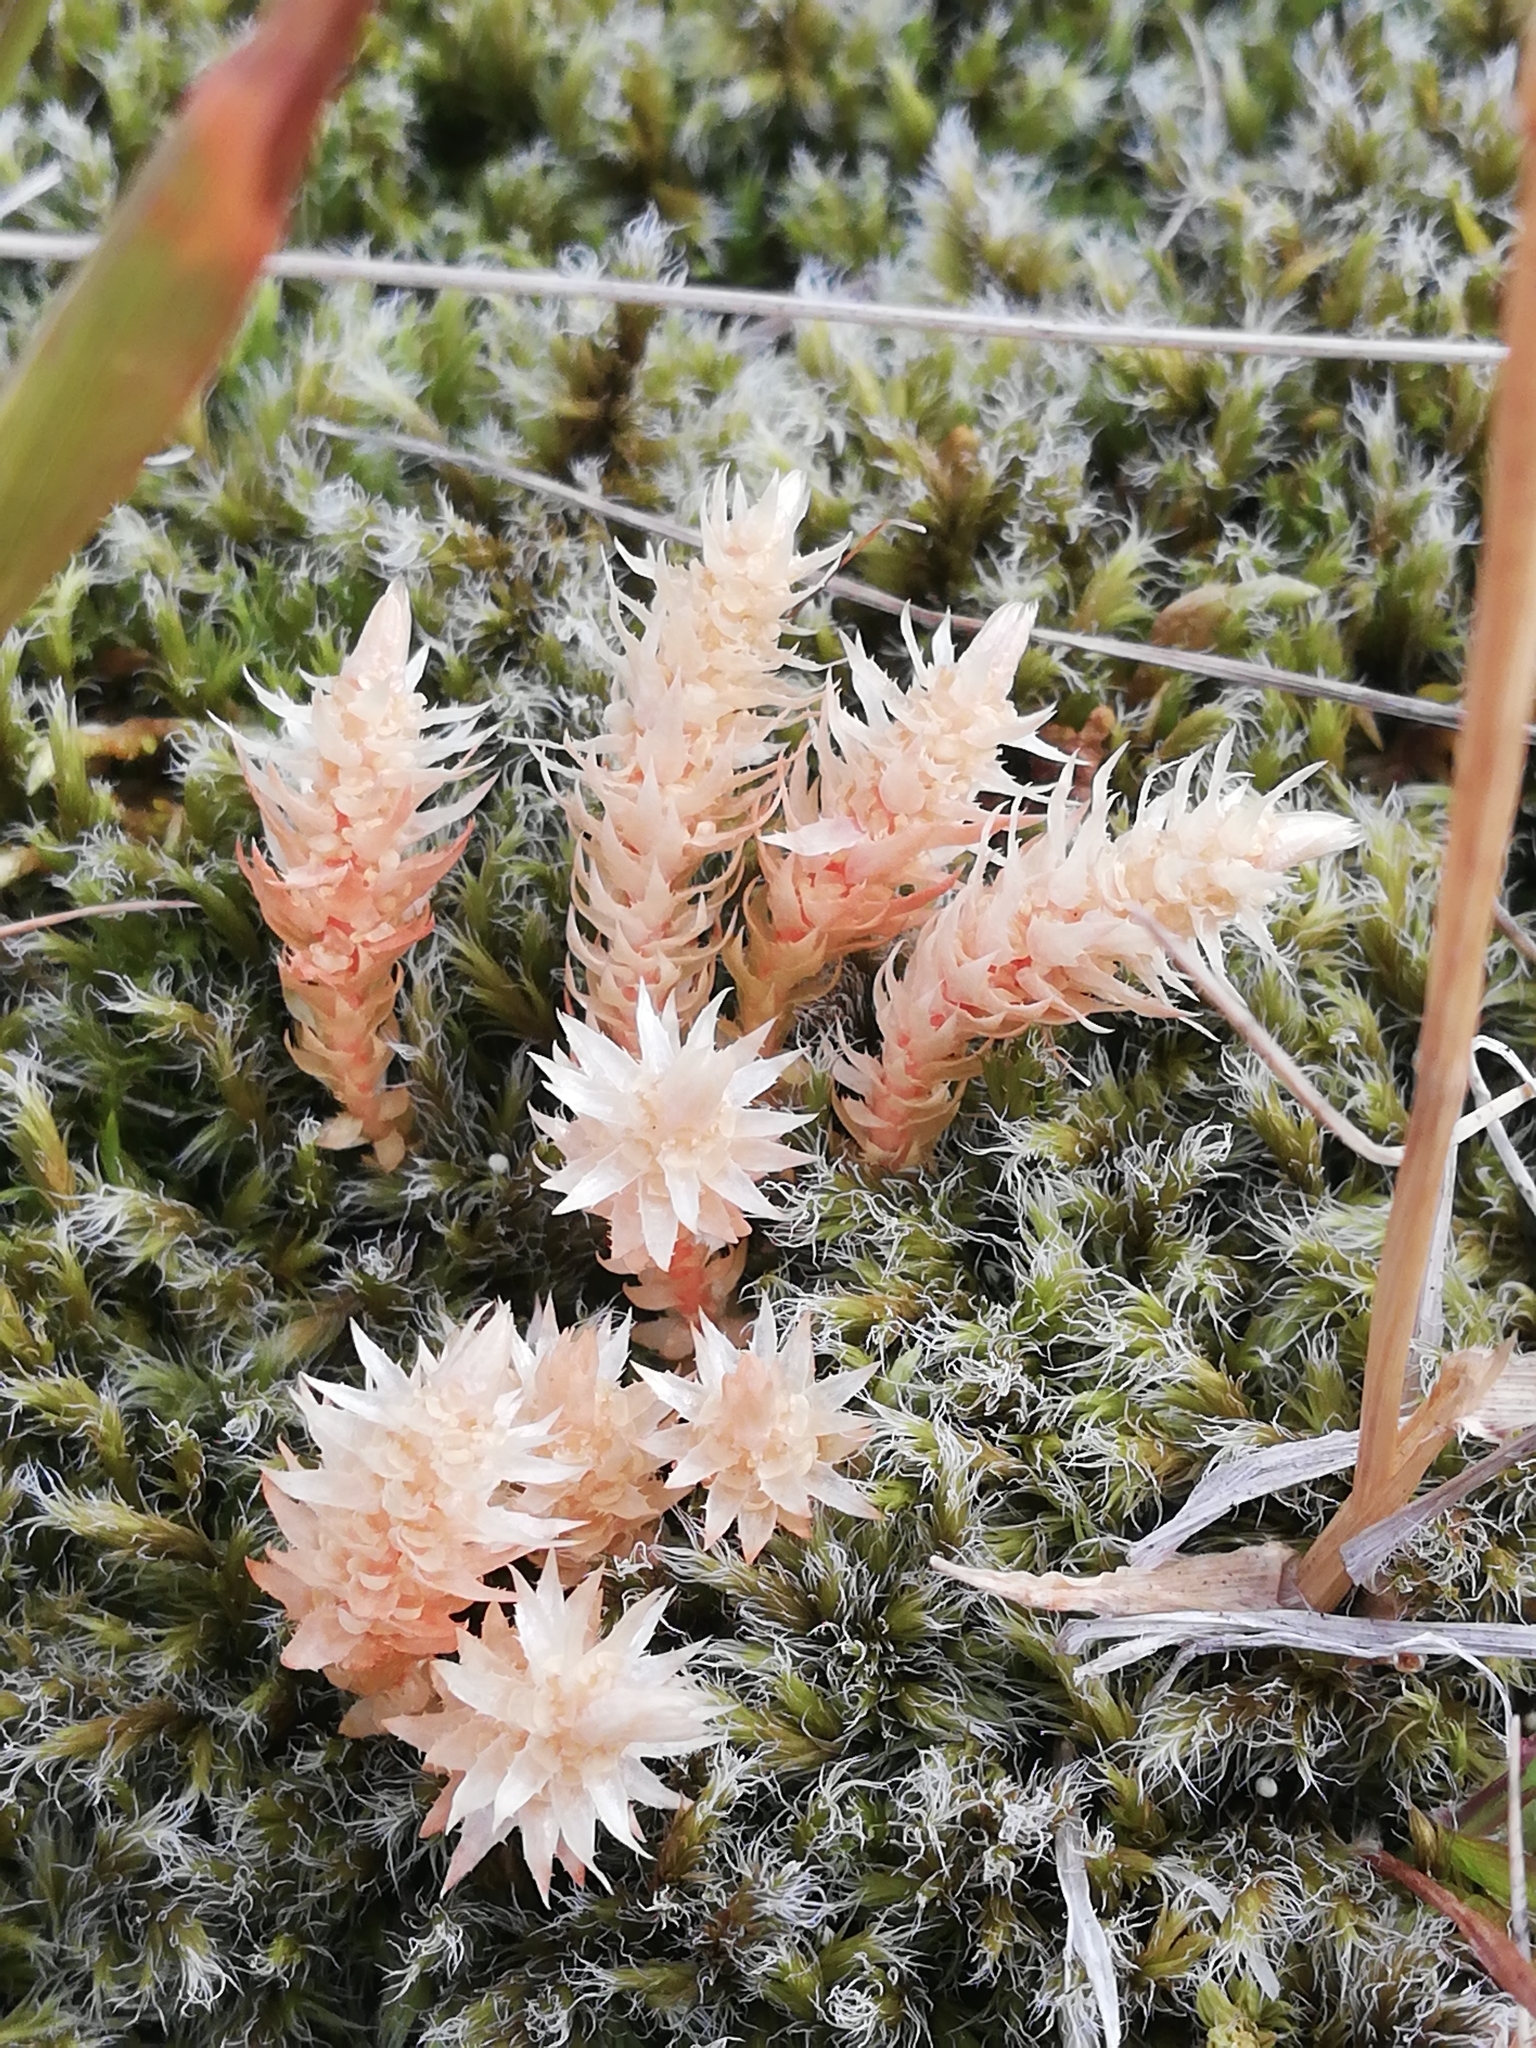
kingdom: Plantae
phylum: Tracheophyta
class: Lycopodiopsida
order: Selaginellales
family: Selaginellaceae
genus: Selaginella
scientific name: Selaginella selaginoides
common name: Prickly mountain-moss
